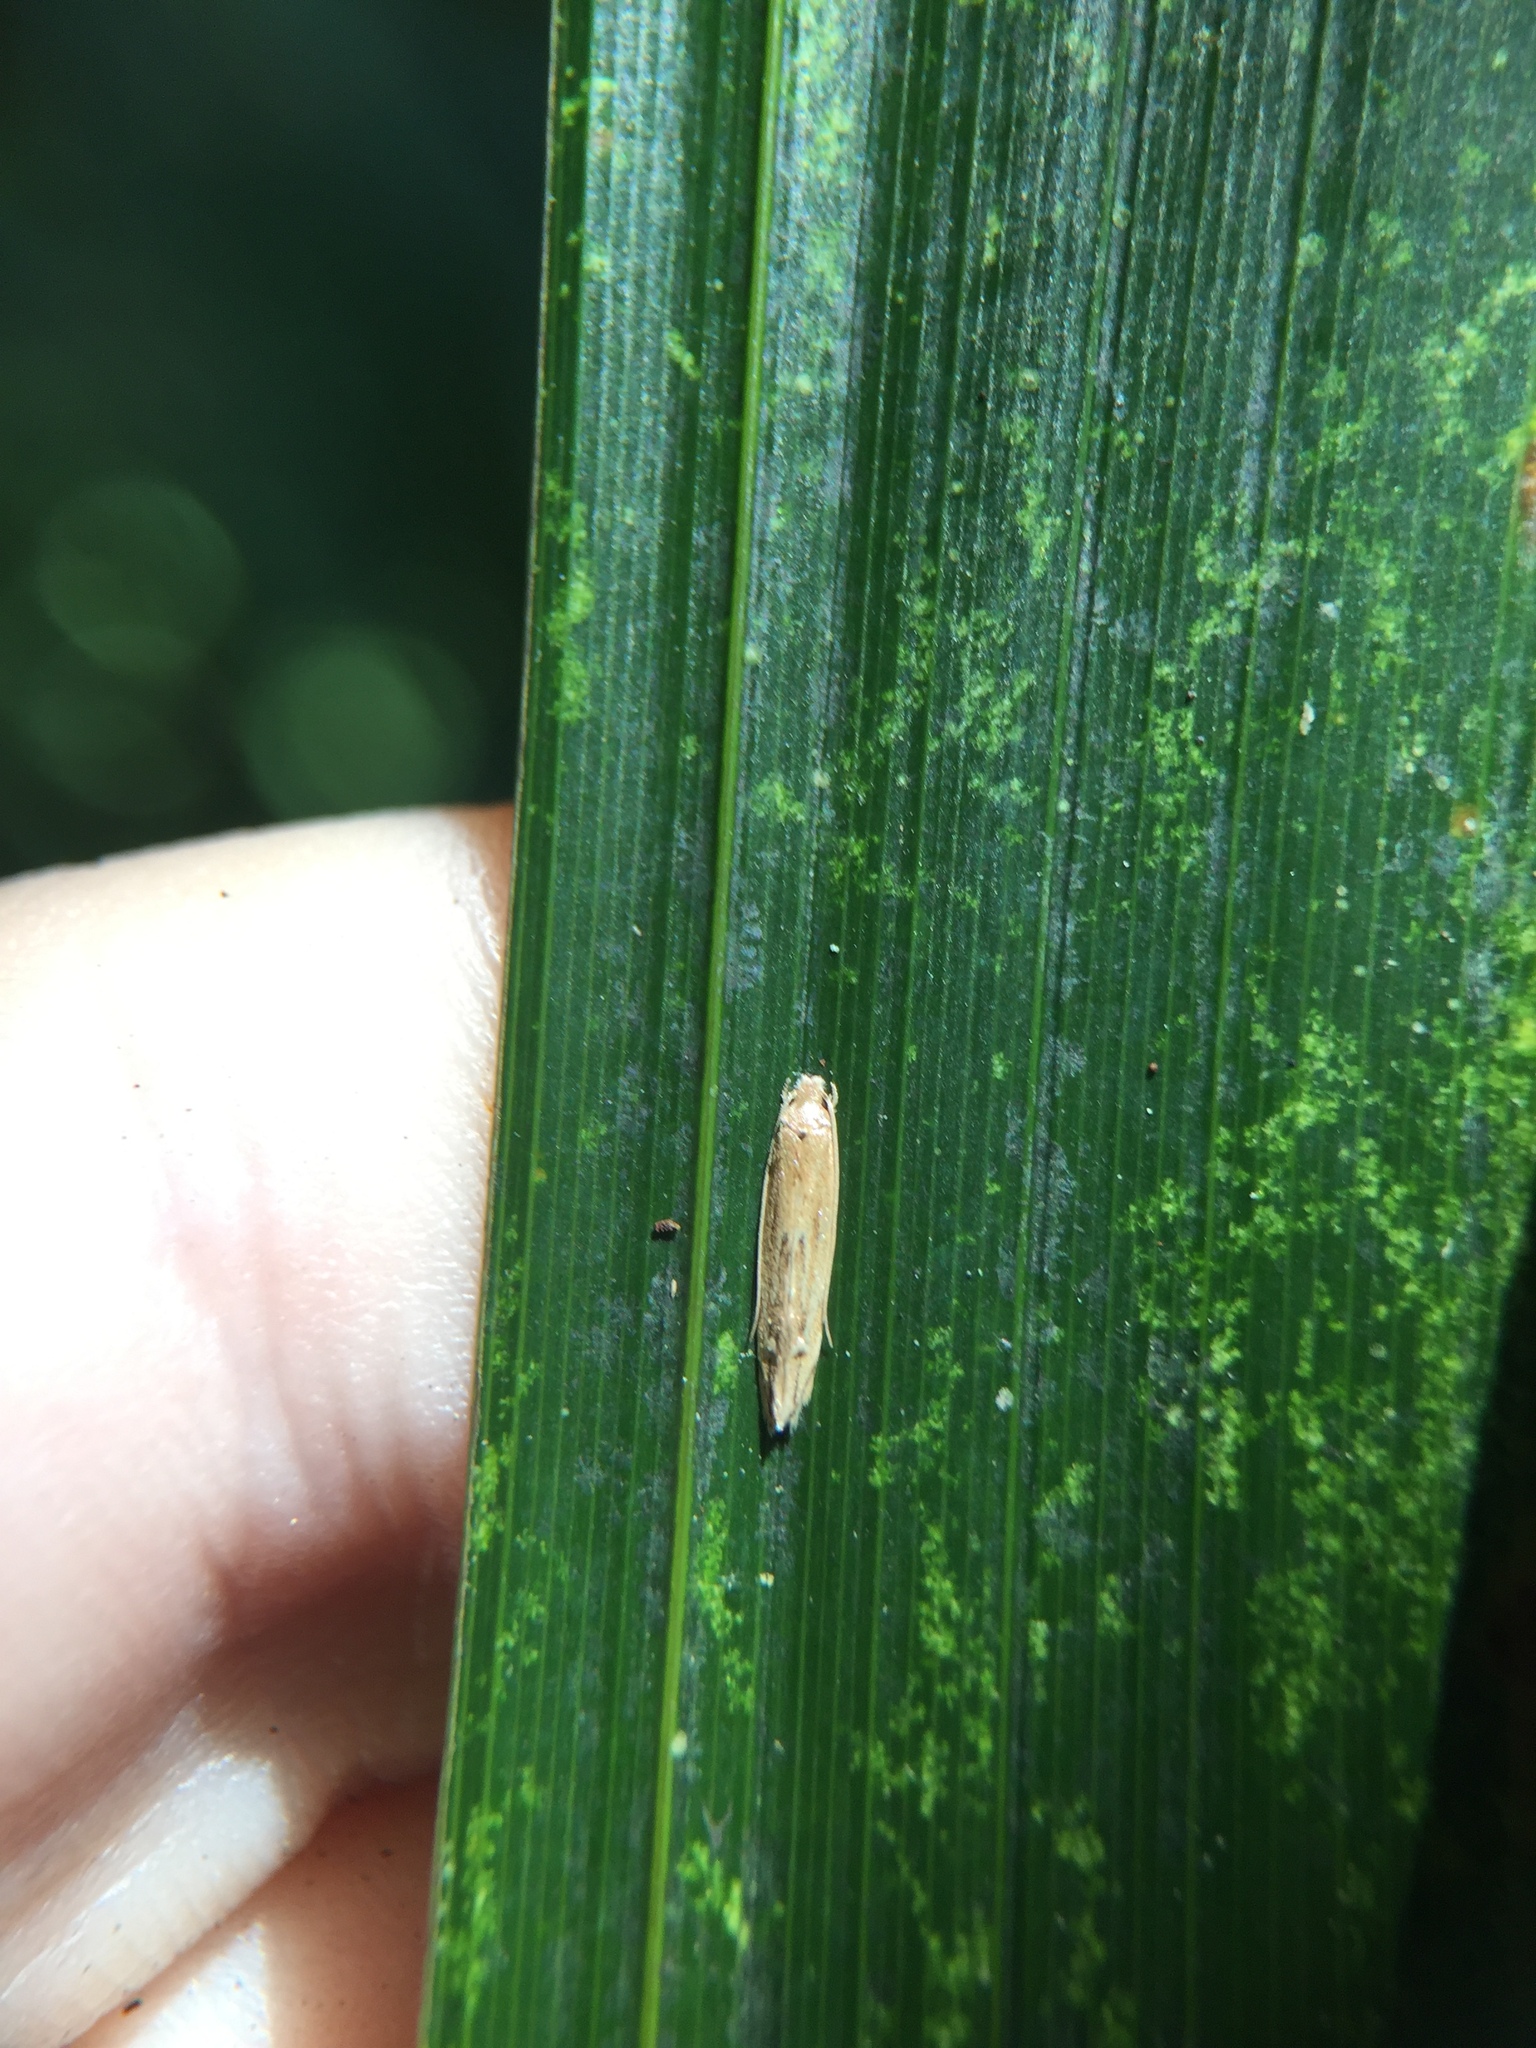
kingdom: Animalia
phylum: Arthropoda
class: Insecta
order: Lepidoptera
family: Tineidae
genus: Amphixystis
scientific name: Amphixystis hapsimacha
